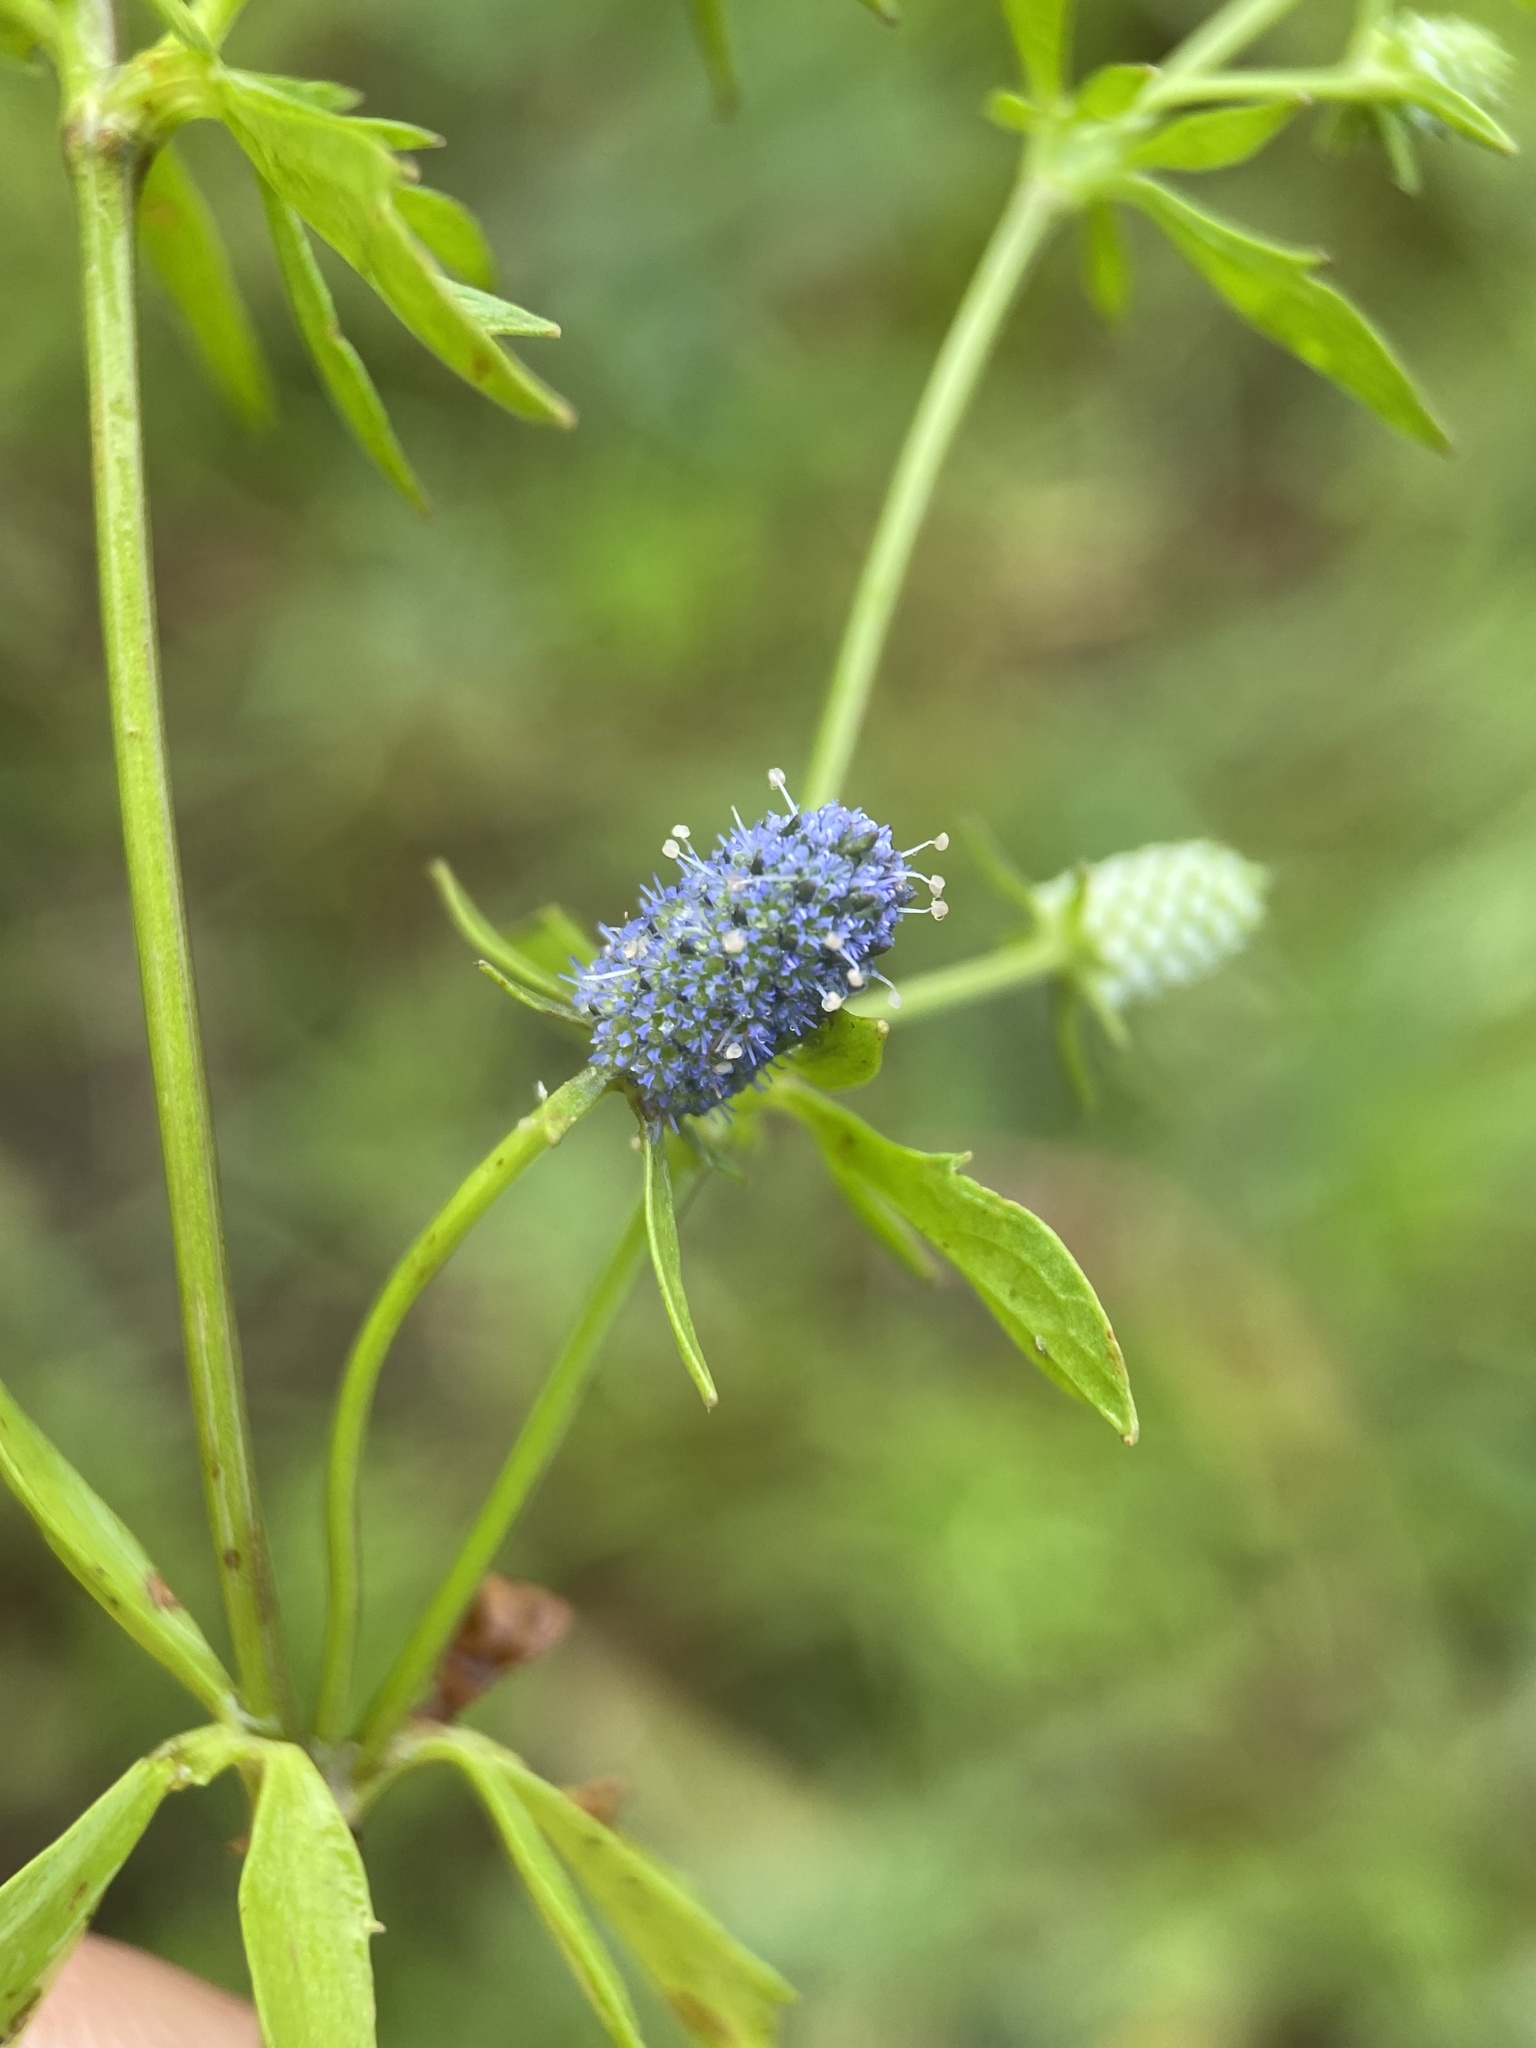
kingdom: Plantae
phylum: Tracheophyta
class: Magnoliopsida
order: Apiales
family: Apiaceae
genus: Eryngium
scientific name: Eryngium prostratum
